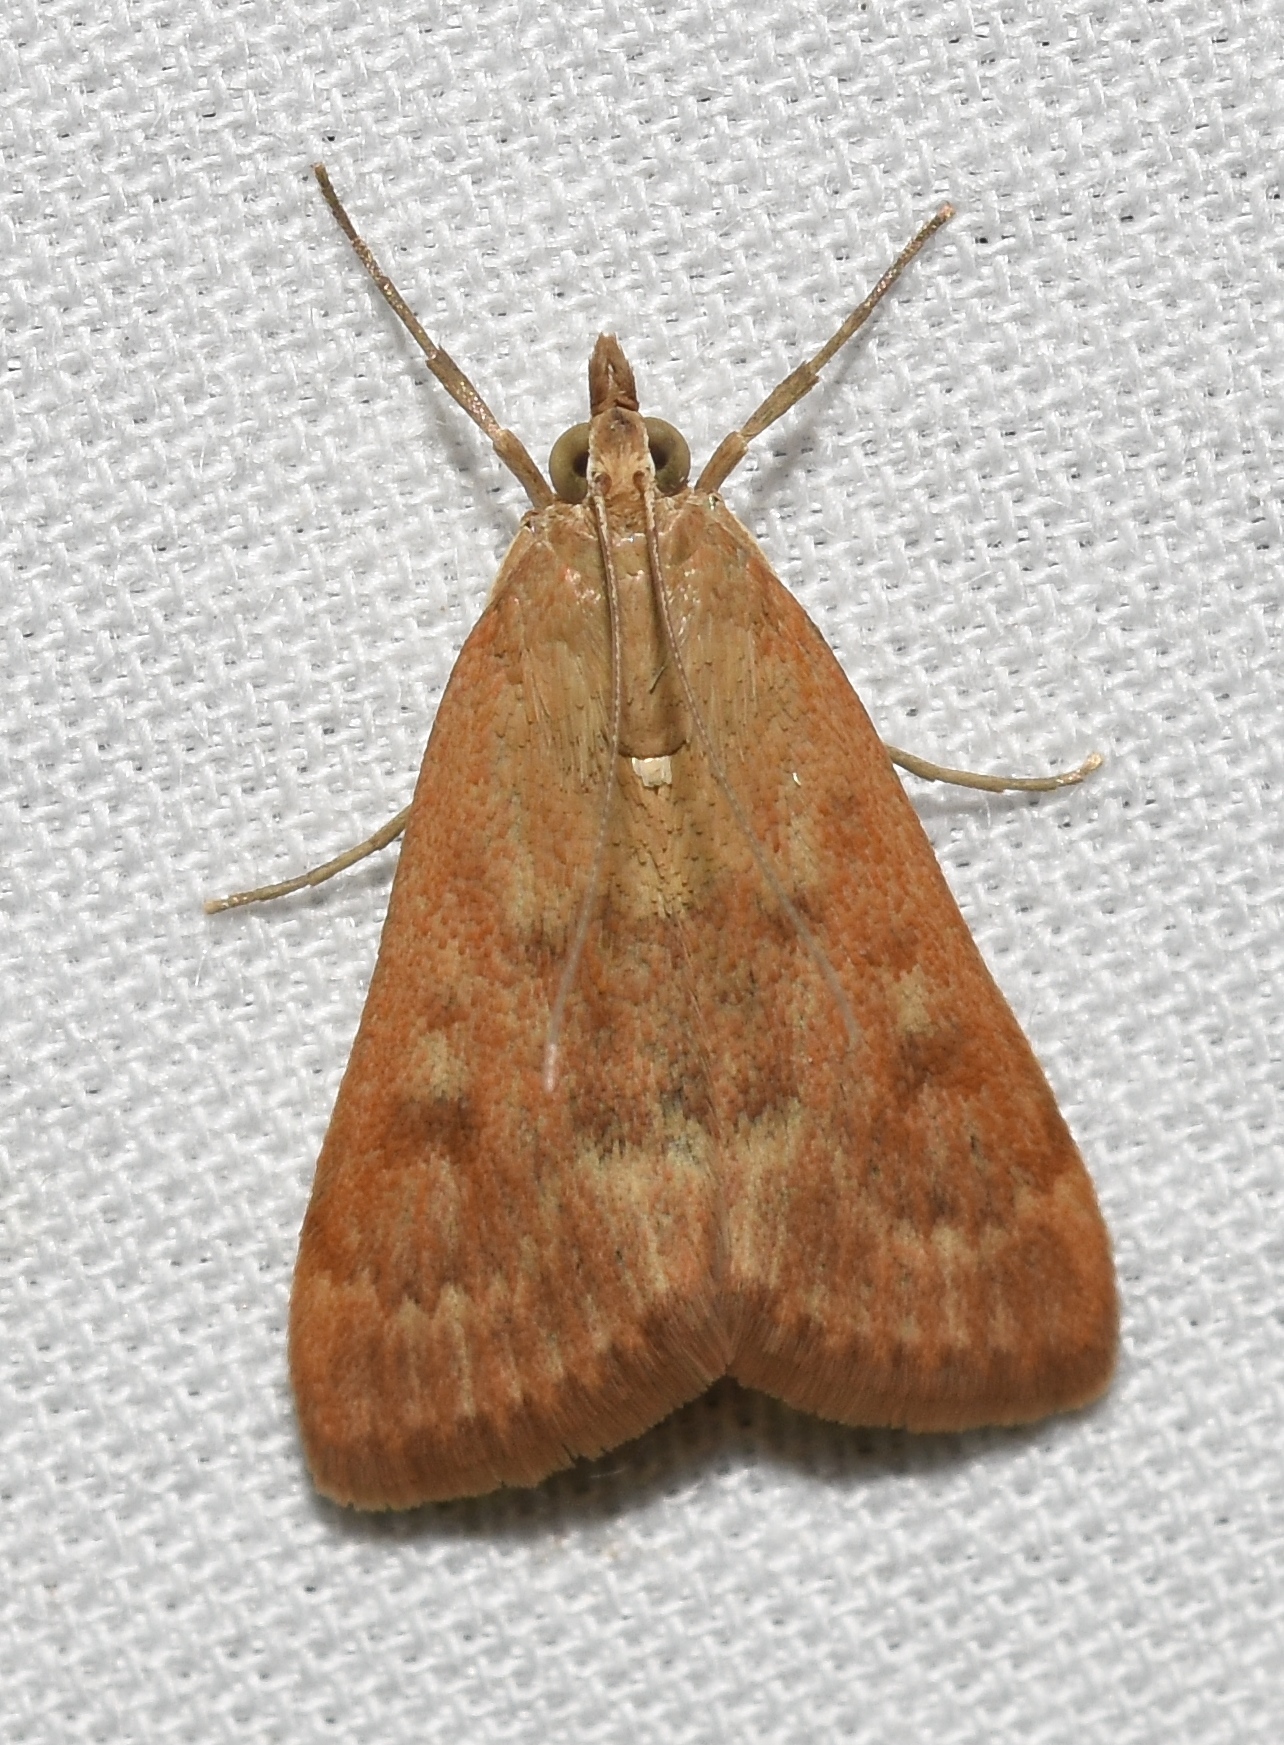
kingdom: Animalia
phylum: Arthropoda
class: Insecta
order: Lepidoptera
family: Crambidae
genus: Achyra
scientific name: Achyra rantalis
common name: Garden webworm
